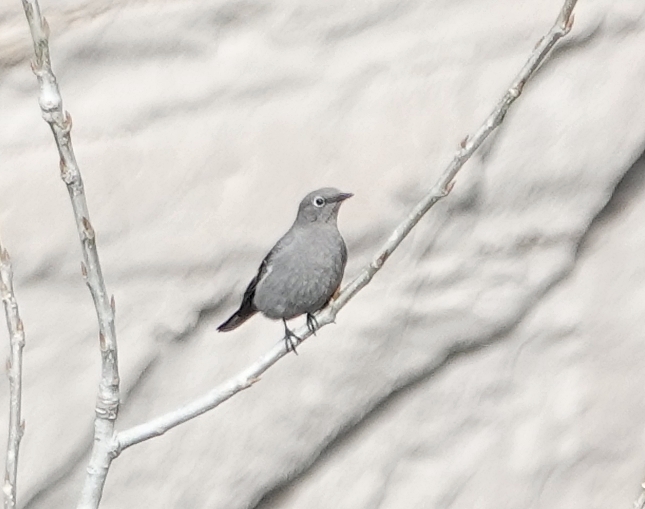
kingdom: Animalia
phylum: Chordata
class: Aves
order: Passeriformes
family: Turdidae
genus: Myadestes
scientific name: Myadestes townsendi
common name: Townsend's solitaire
